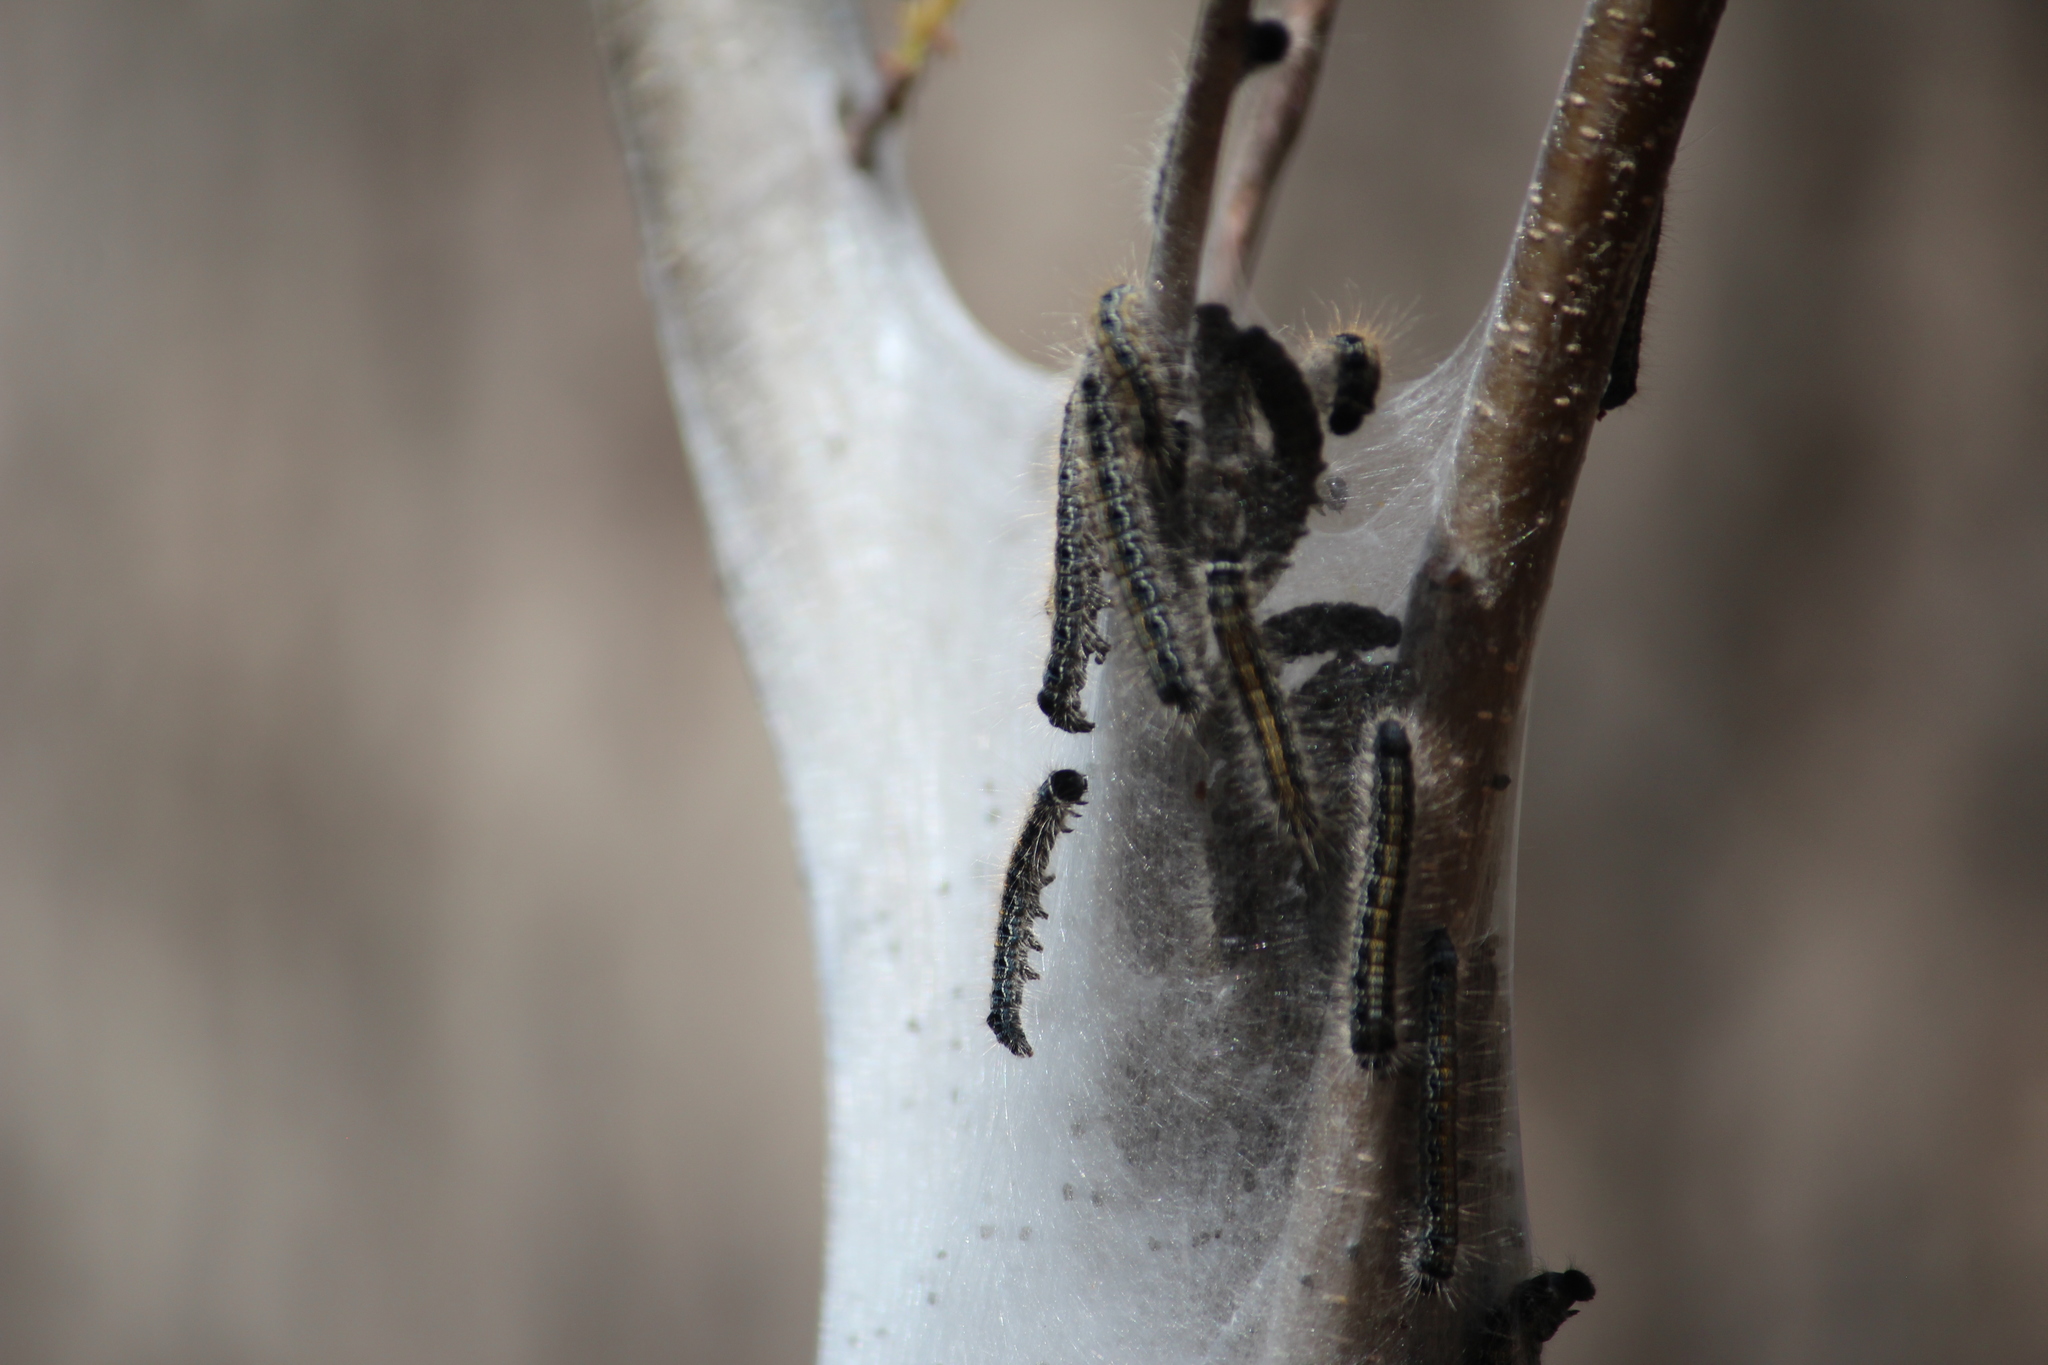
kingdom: Animalia
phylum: Arthropoda
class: Insecta
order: Lepidoptera
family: Lasiocampidae
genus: Malacosoma
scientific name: Malacosoma americana
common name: Eastern tent caterpillar moth
